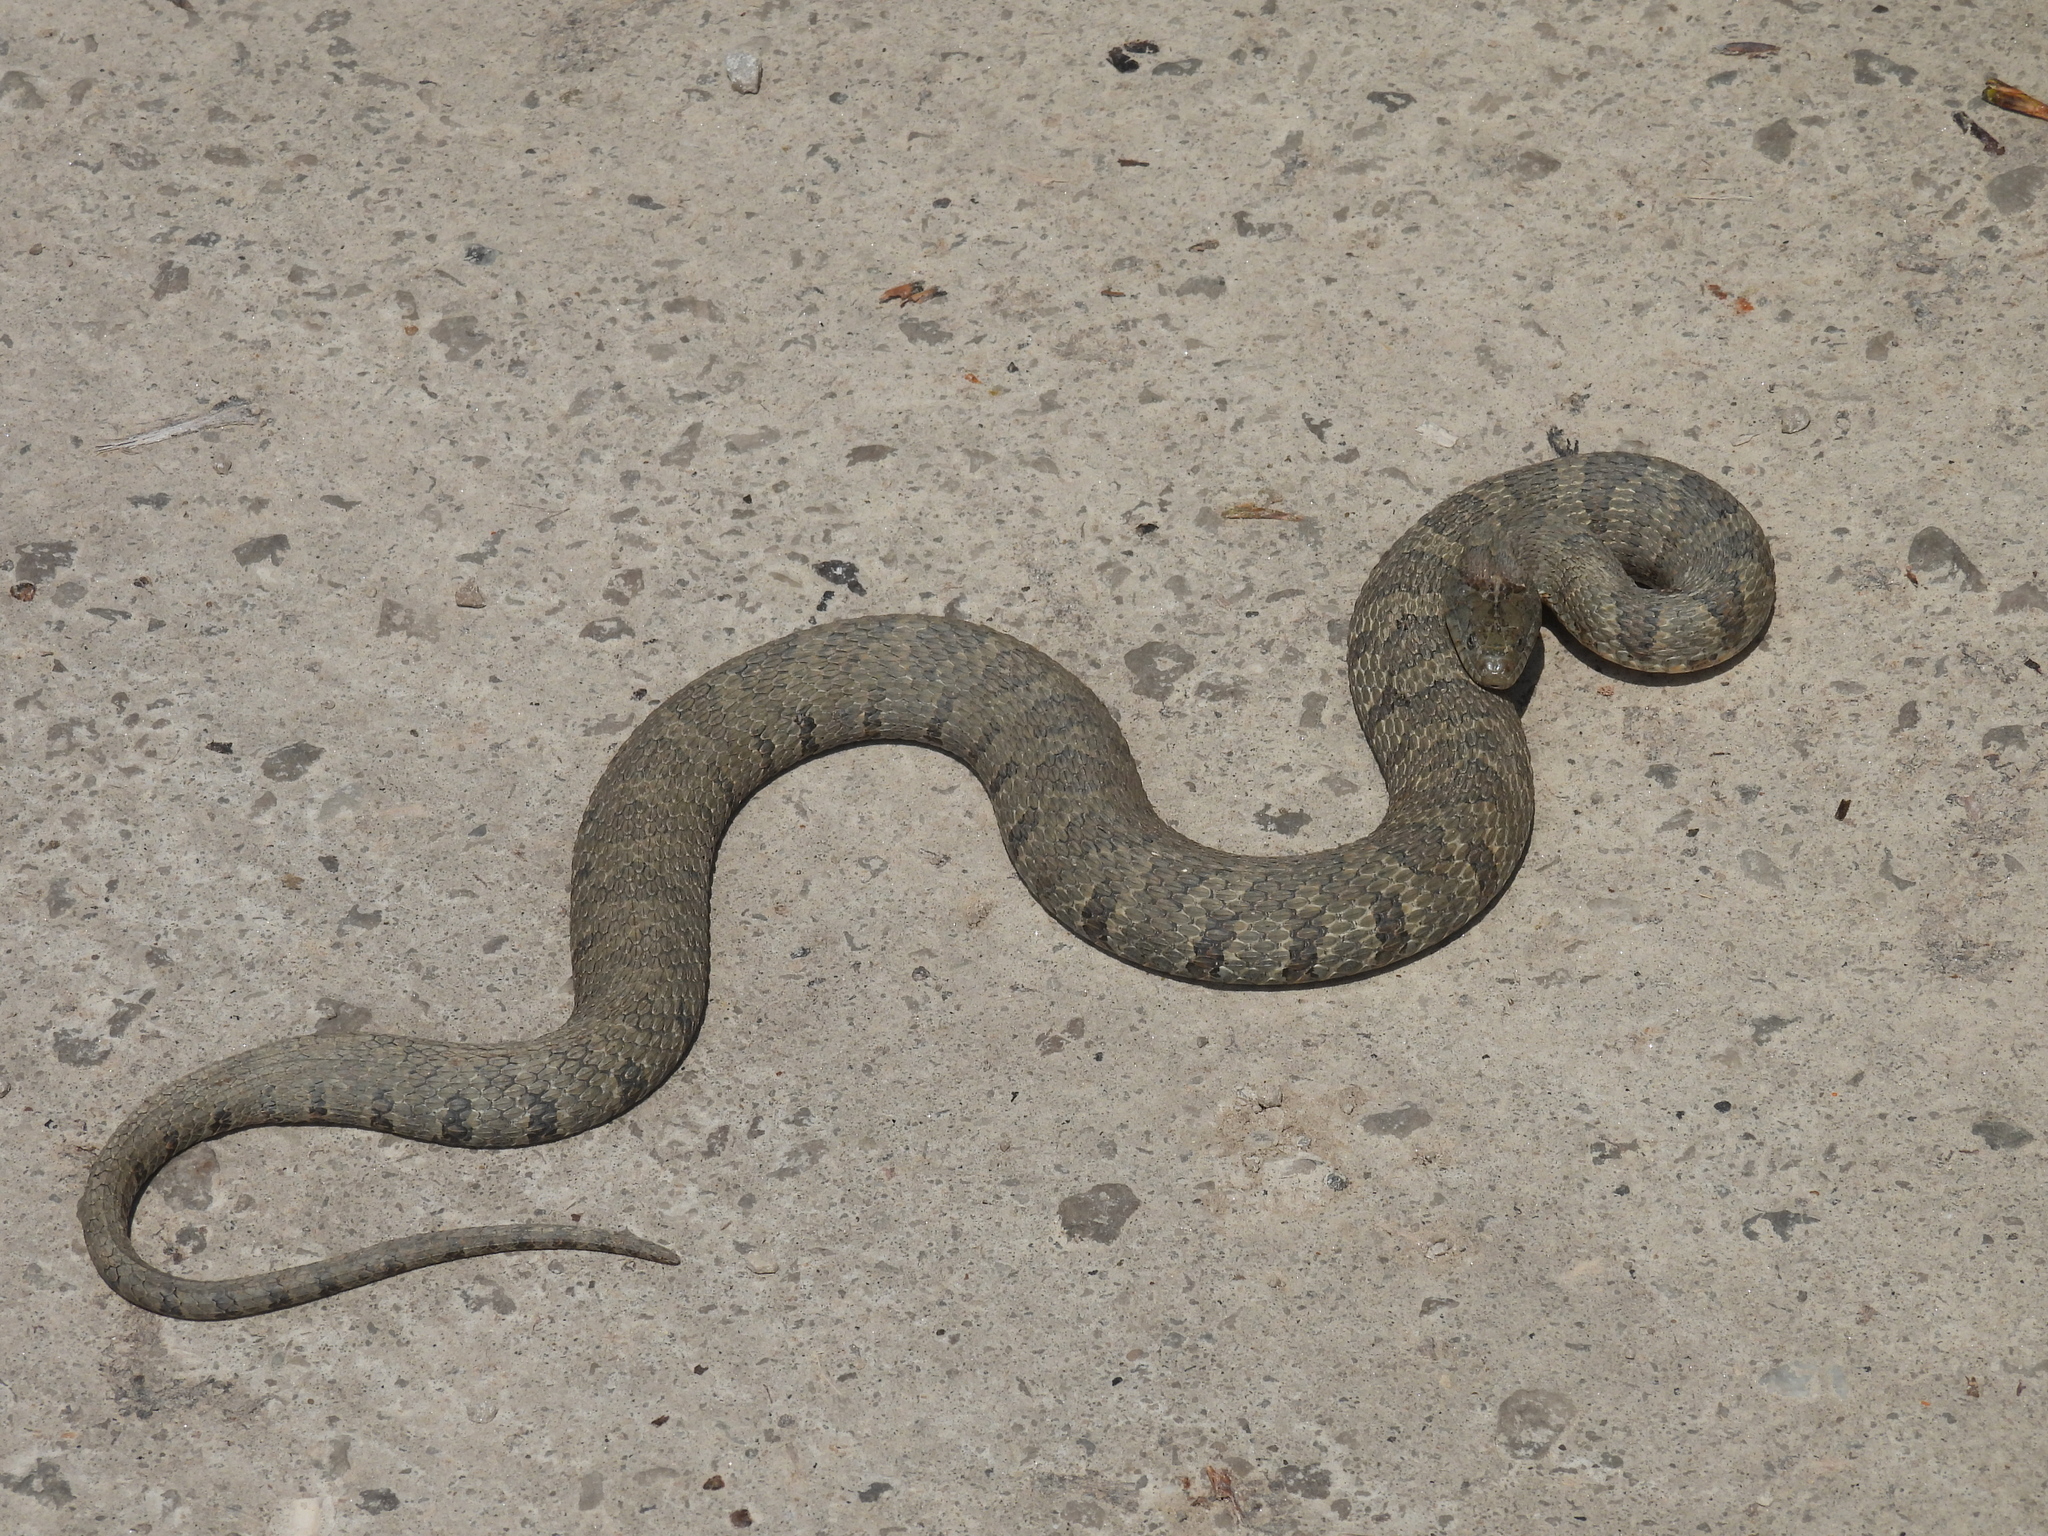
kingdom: Animalia
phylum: Chordata
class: Squamata
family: Colubridae
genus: Nerodia
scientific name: Nerodia sipedon
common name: Northern water snake
